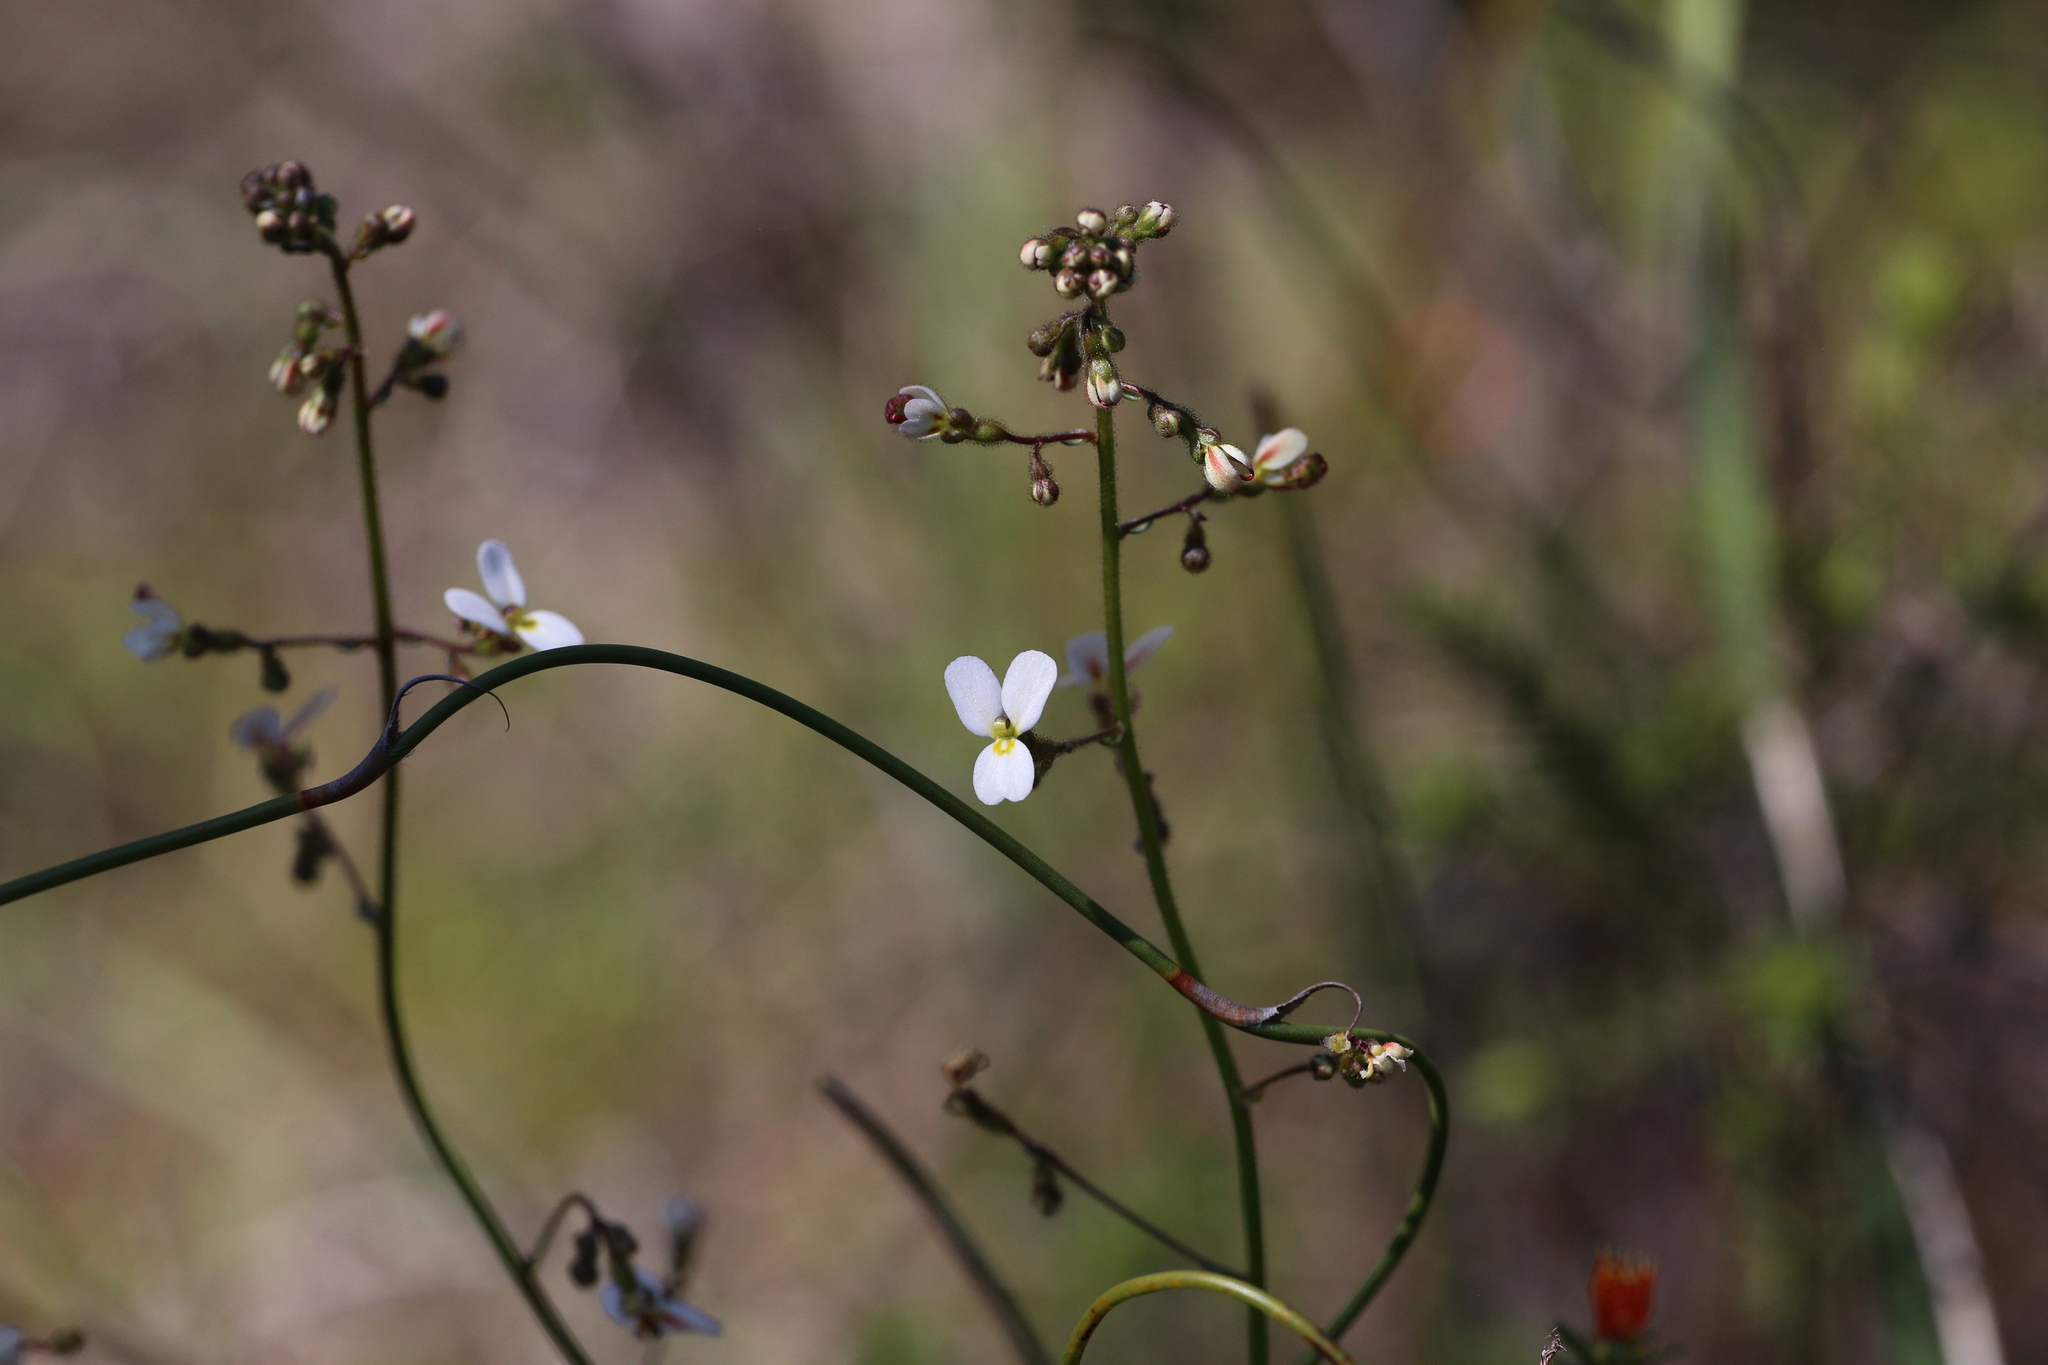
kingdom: Plantae
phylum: Tracheophyta
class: Magnoliopsida
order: Asterales
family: Stylidiaceae
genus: Stylidium
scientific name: Stylidium piliferum
